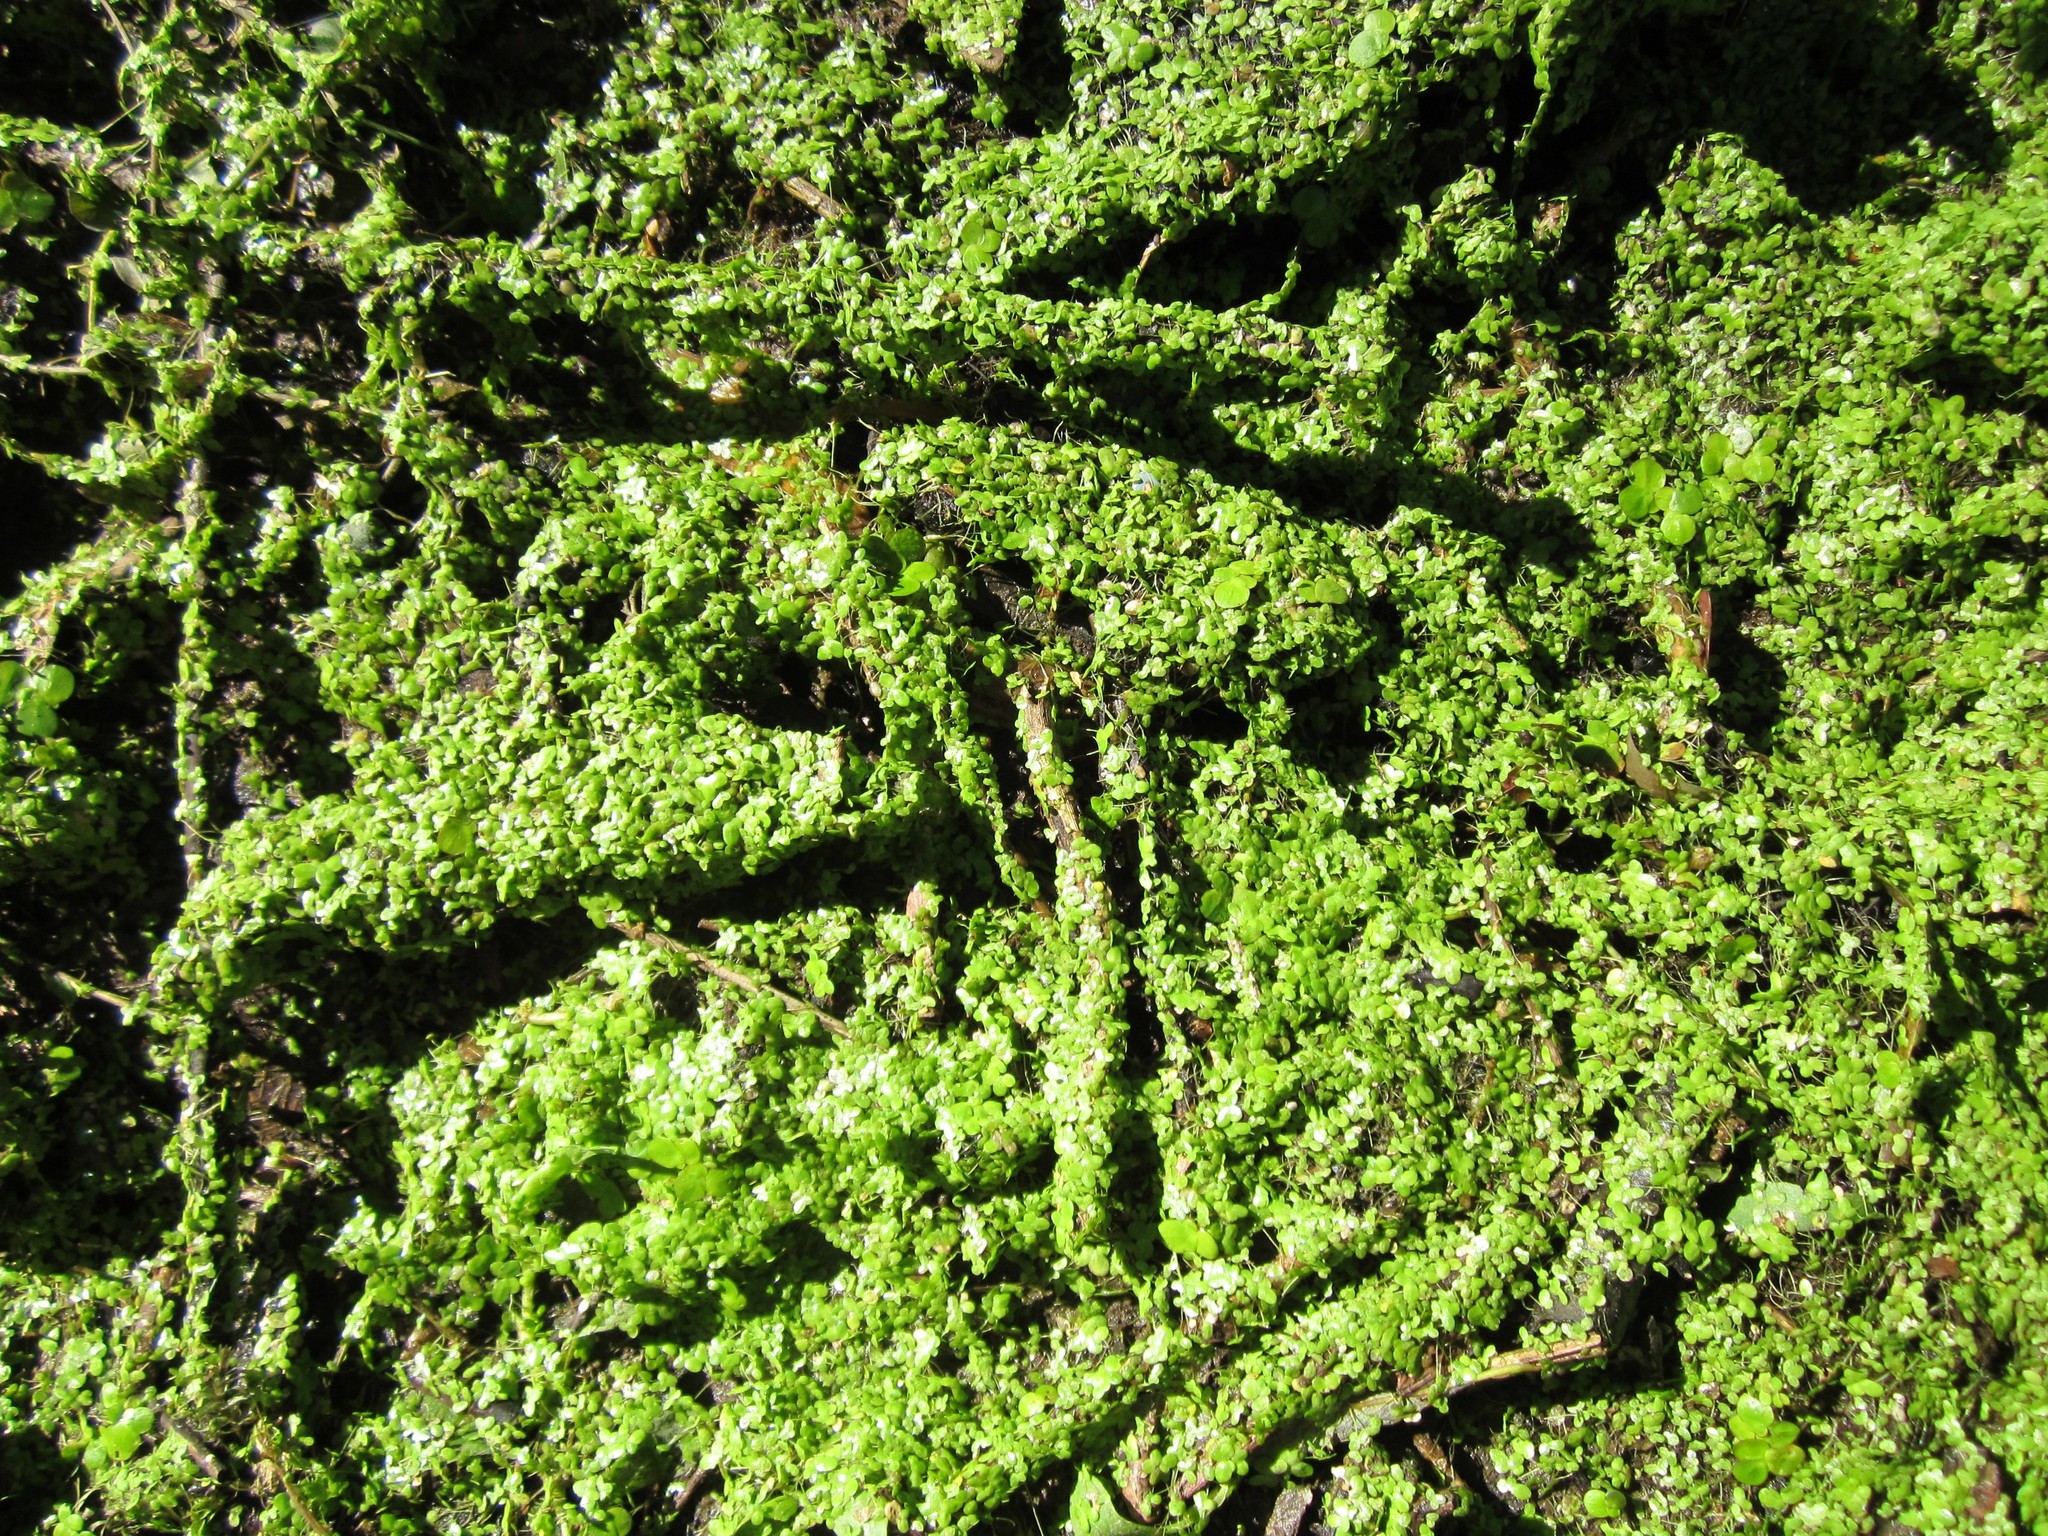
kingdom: Plantae
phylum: Tracheophyta
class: Liliopsida
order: Alismatales
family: Araceae
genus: Lemna
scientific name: Lemna minor
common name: Common duckweed
